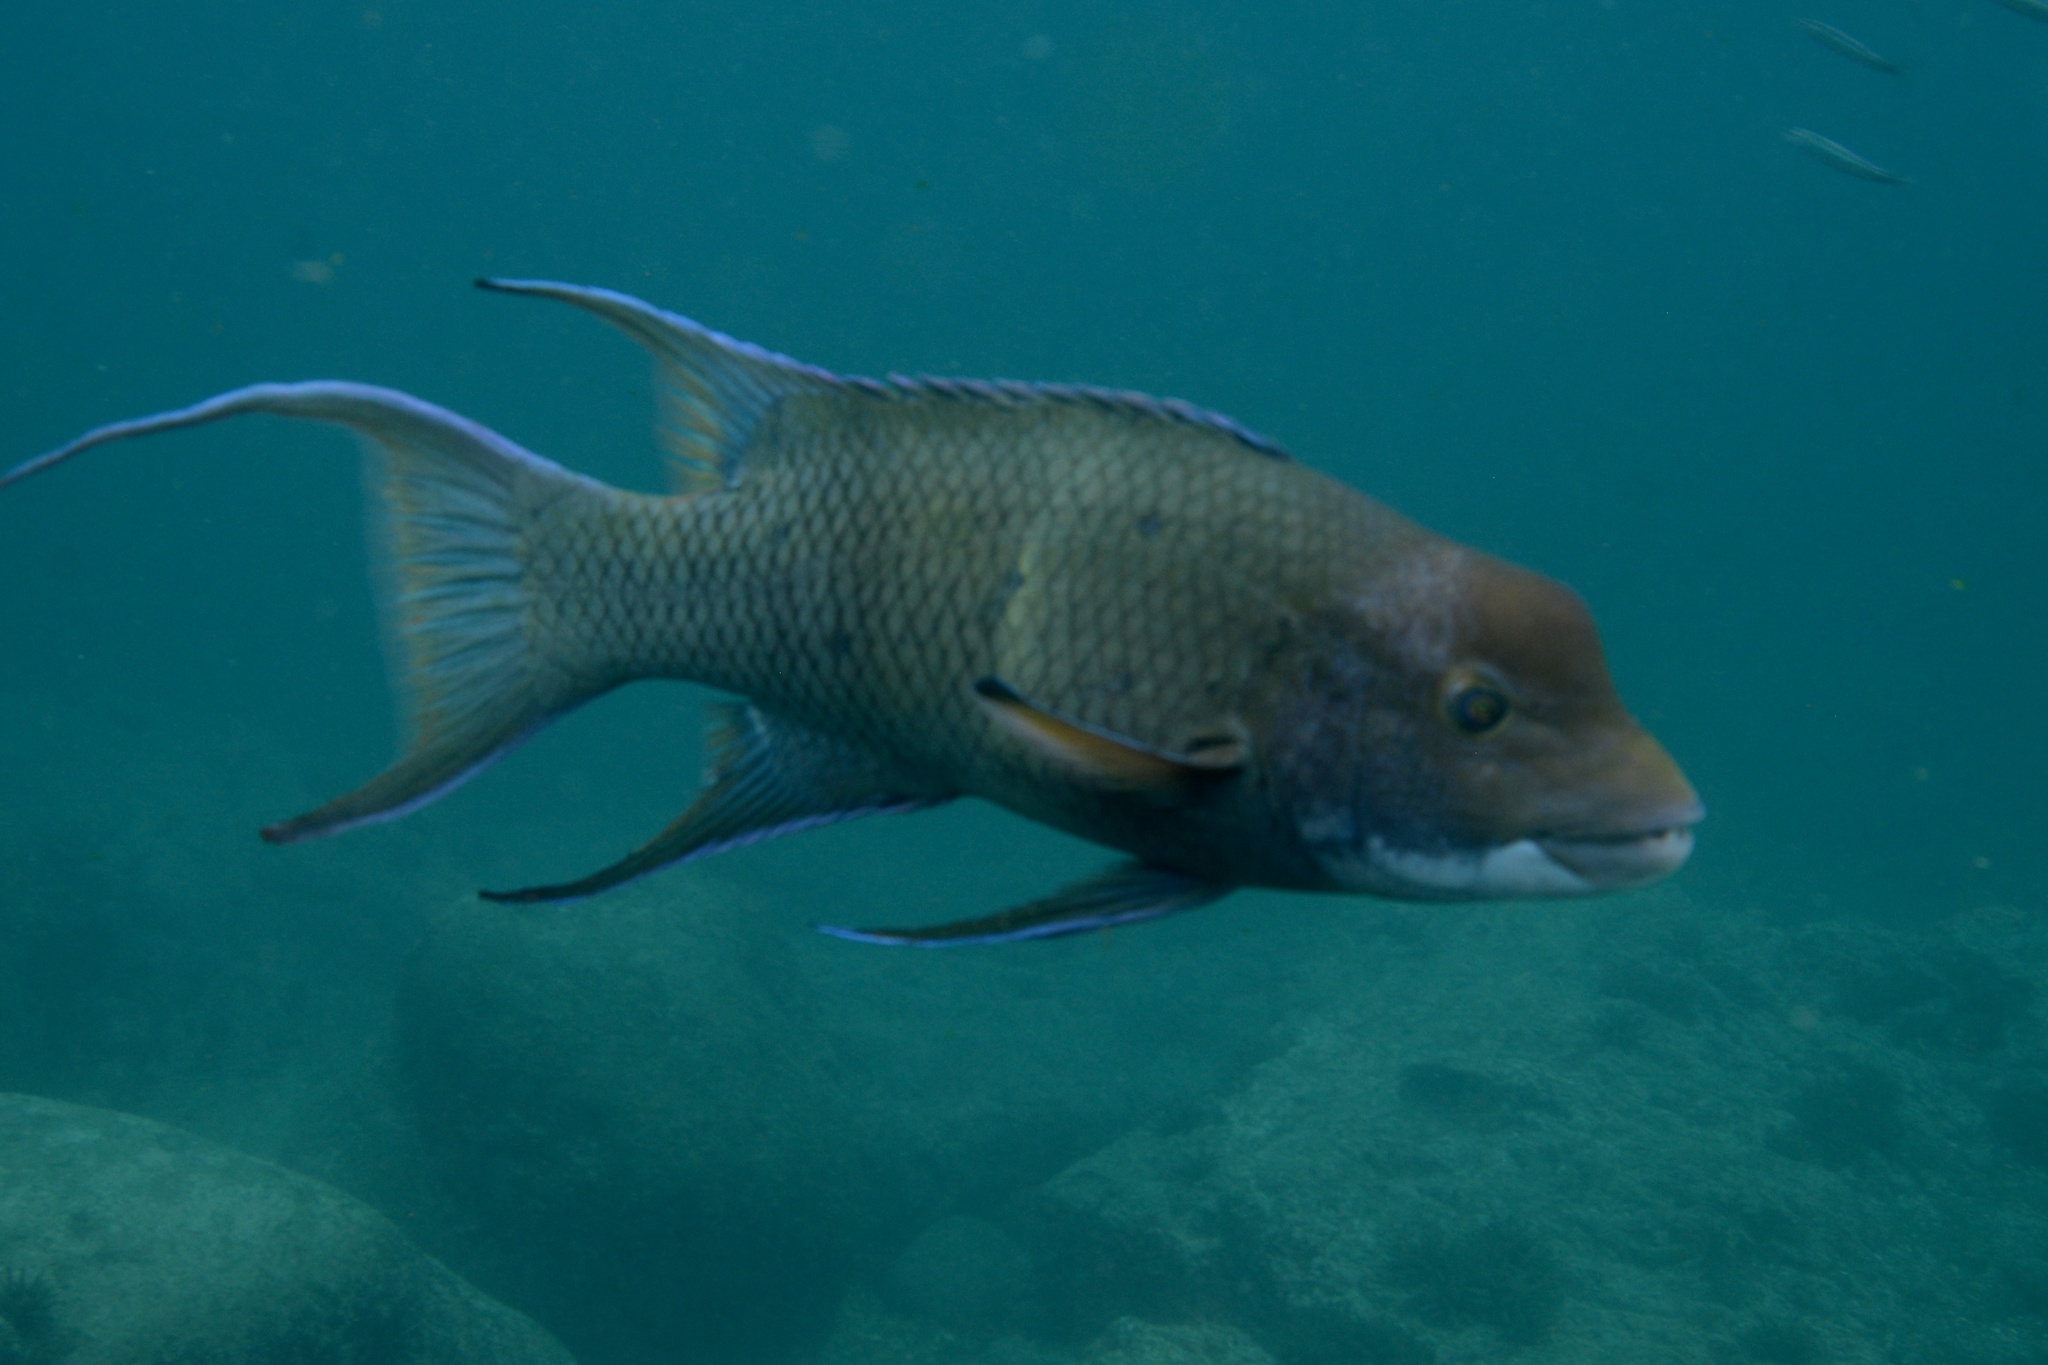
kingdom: Animalia
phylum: Chordata
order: Perciformes
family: Labridae
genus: Bodianus
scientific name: Bodianus diplotaenia
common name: Mexican hogfish
